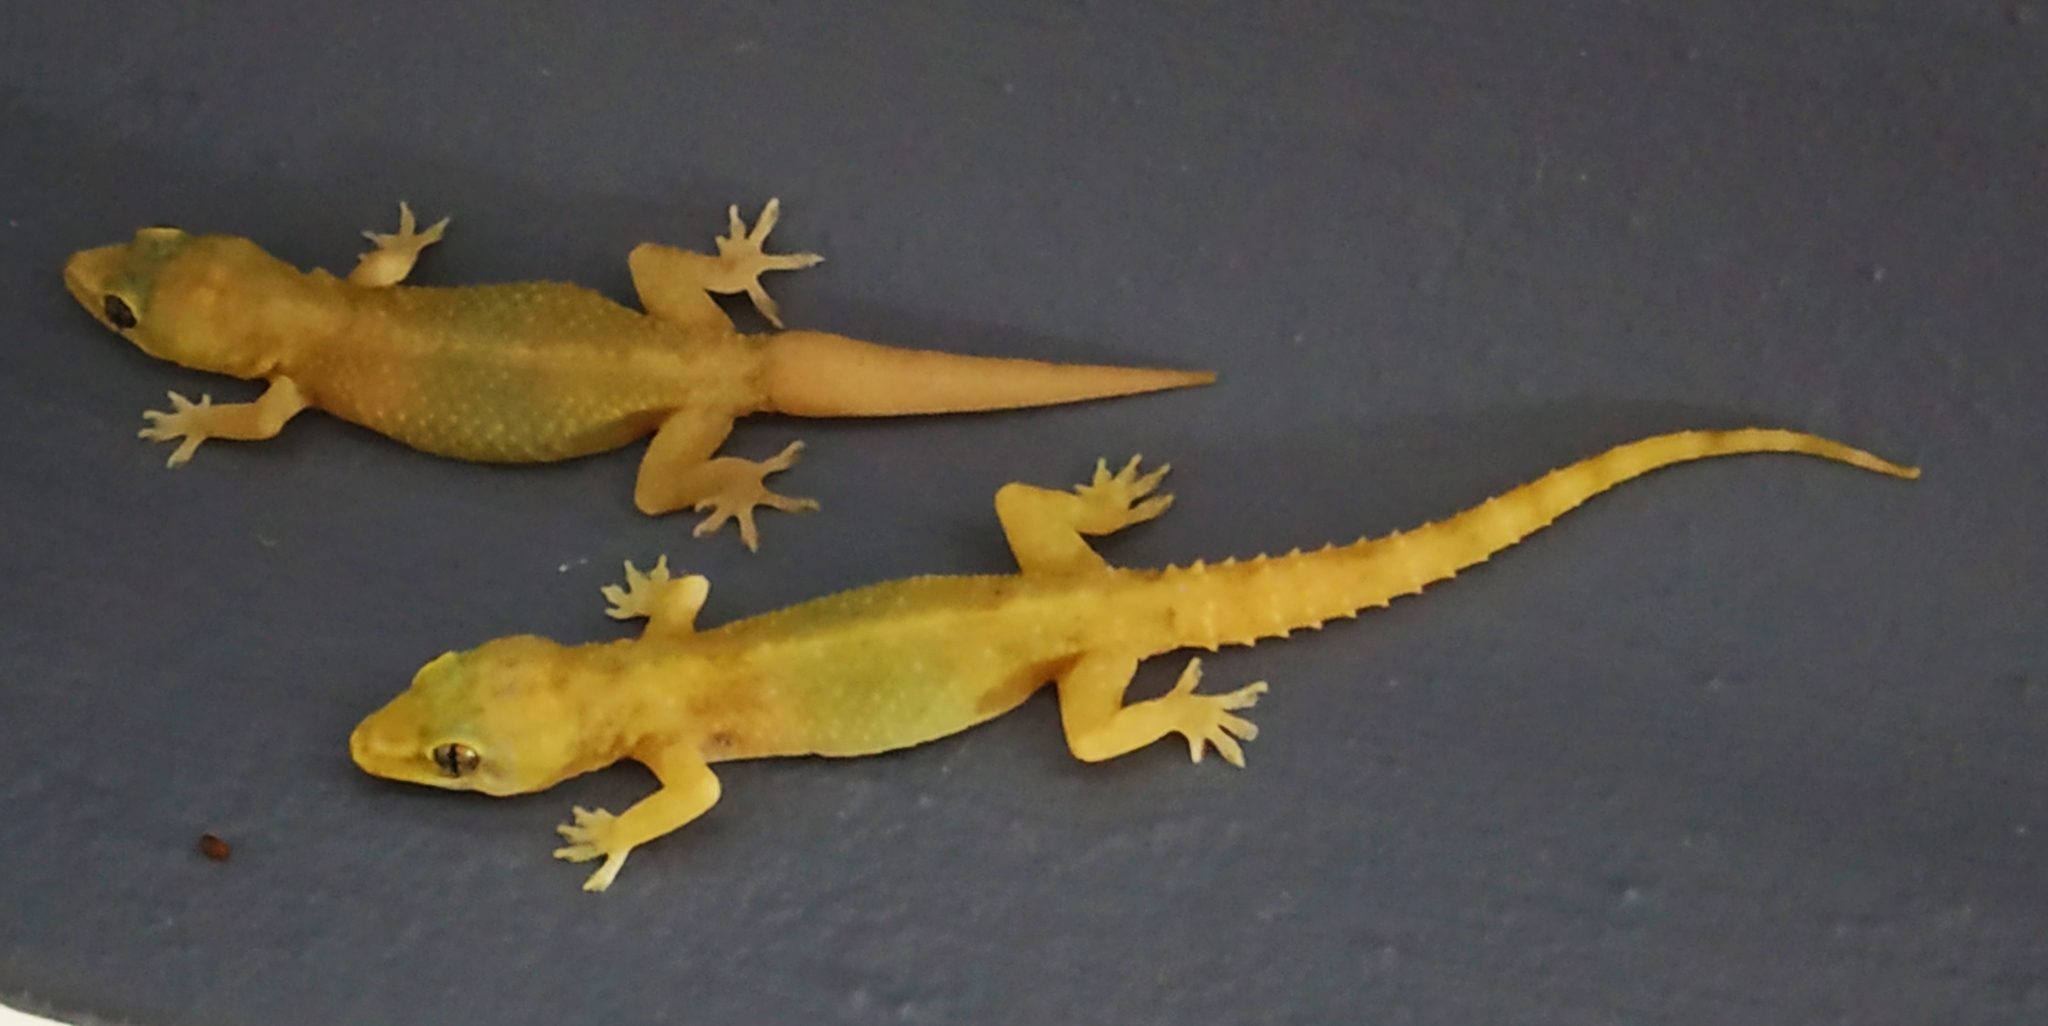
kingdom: Animalia
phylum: Chordata
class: Squamata
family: Gekkonidae
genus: Hemidactylus
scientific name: Hemidactylus brookii
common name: Brook's house gecko
